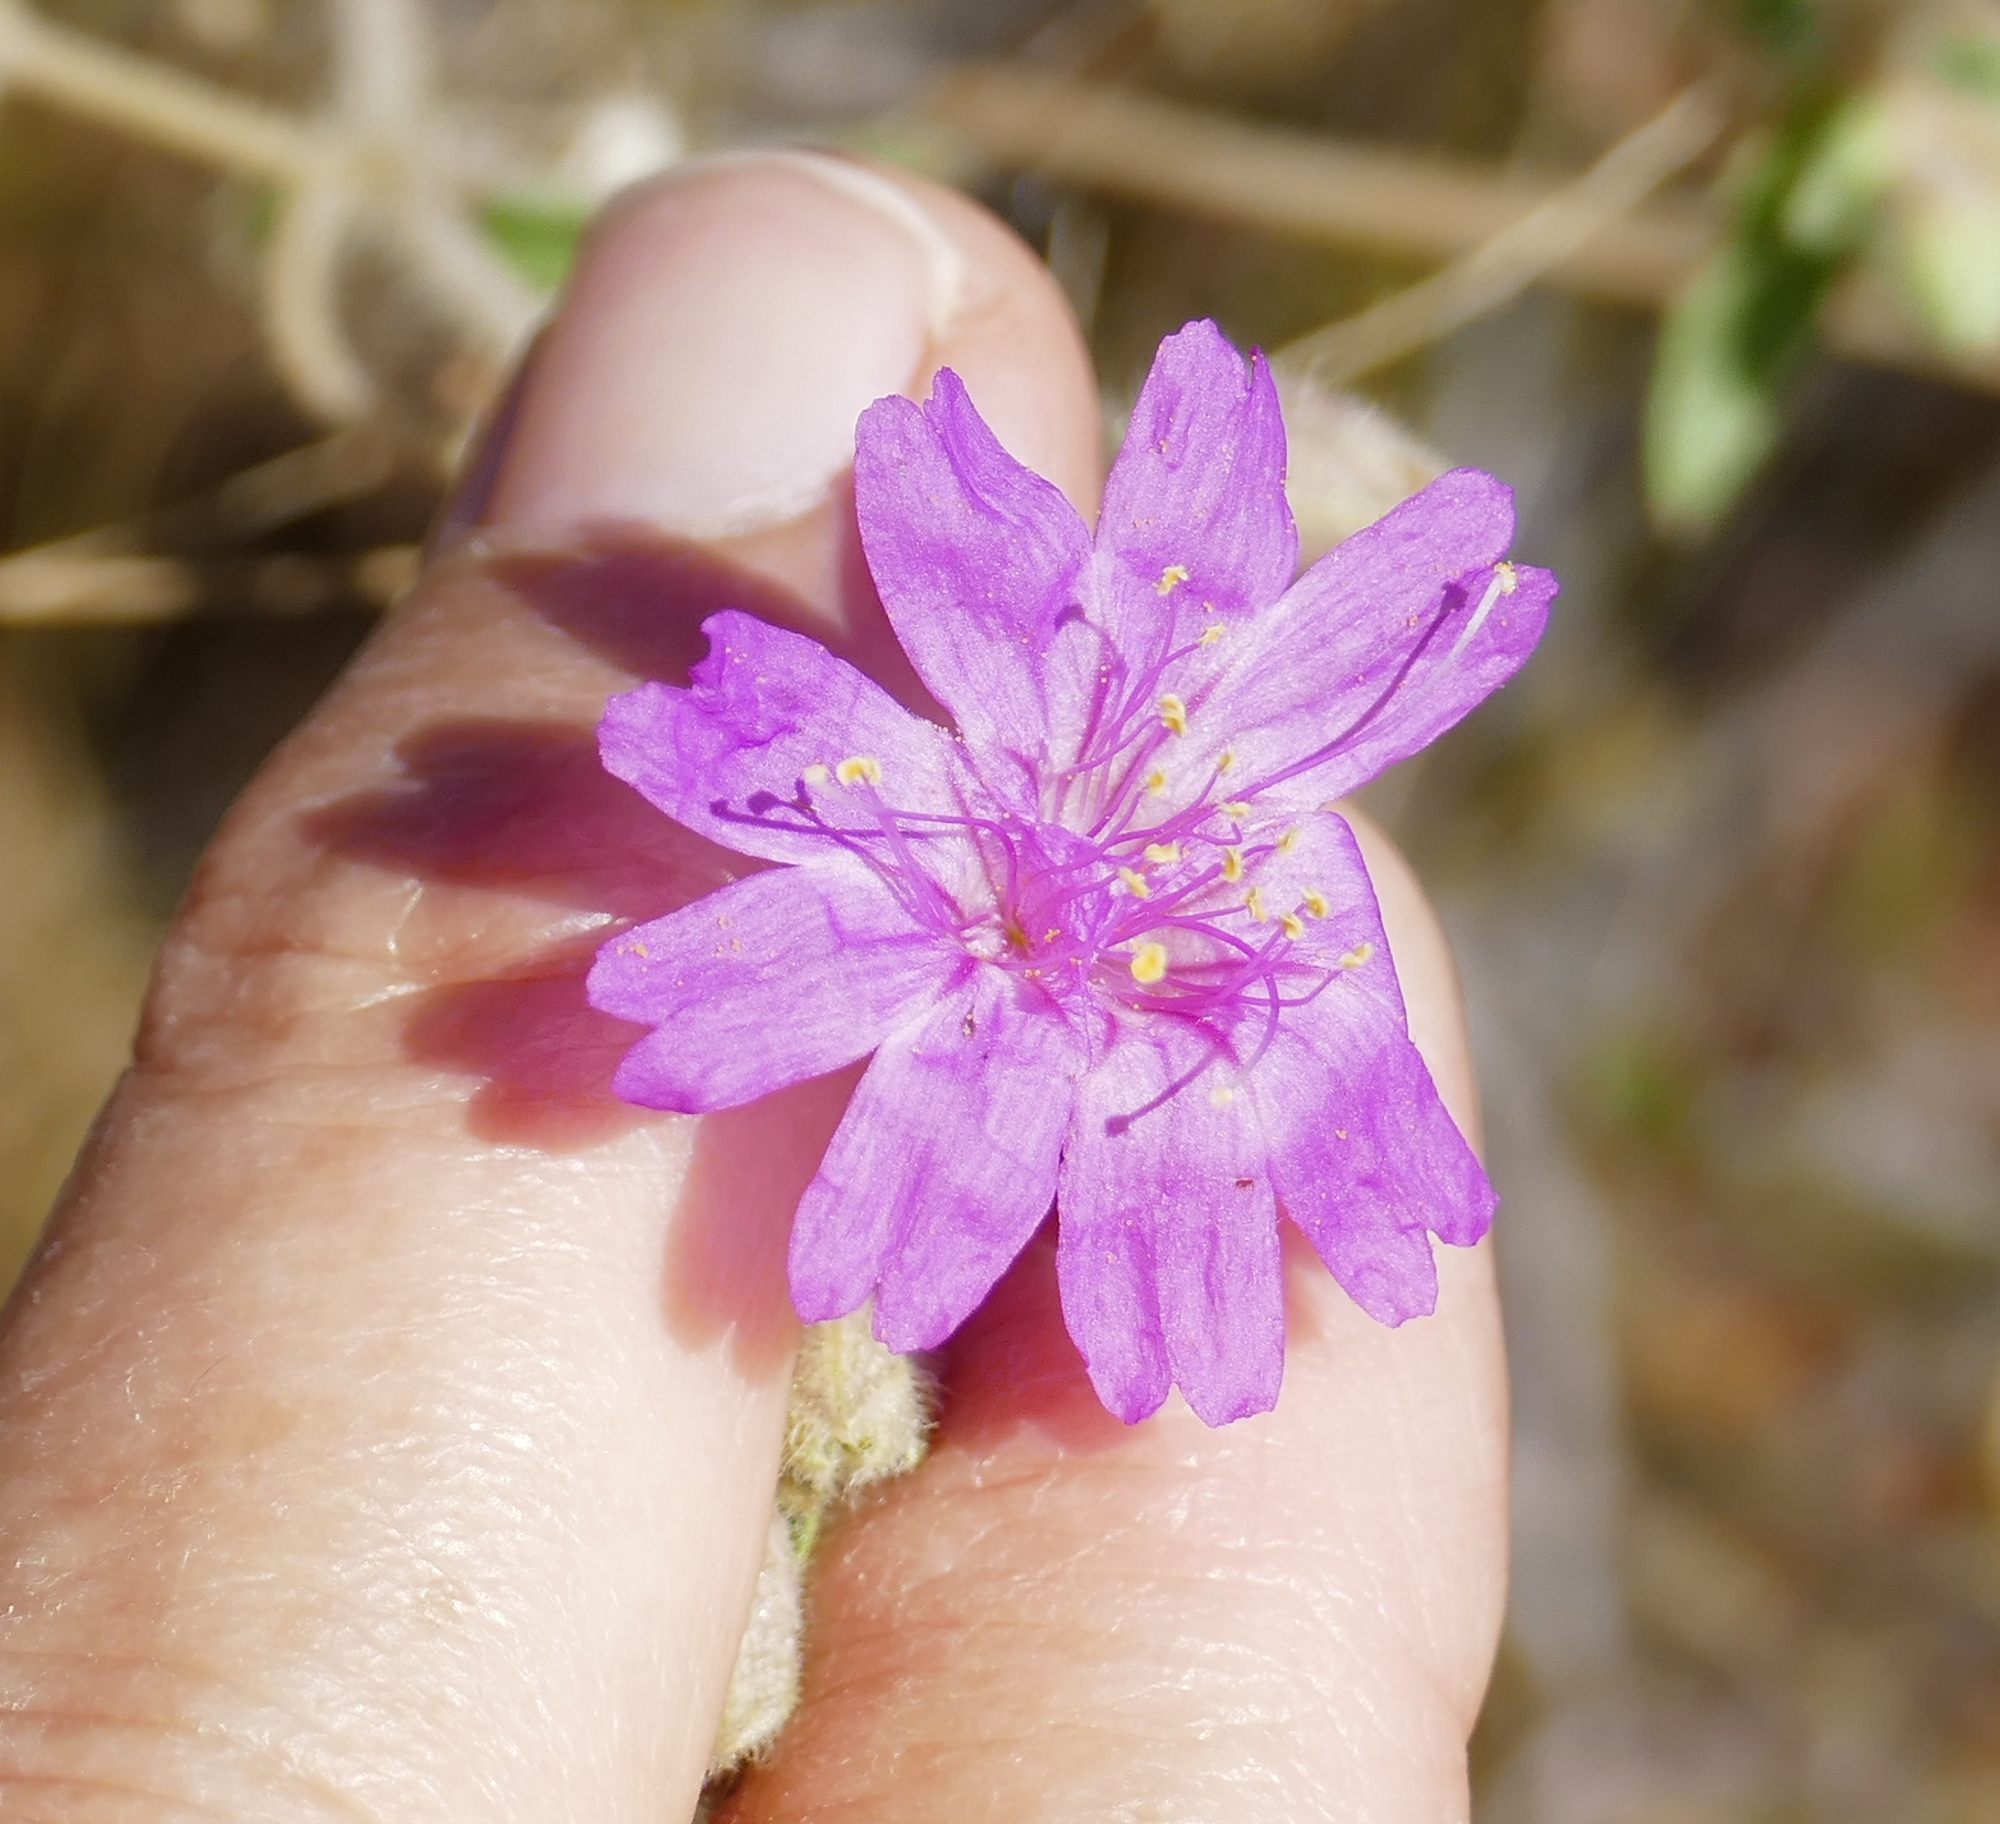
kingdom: Plantae
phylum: Tracheophyta
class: Magnoliopsida
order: Caryophyllales
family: Nyctaginaceae
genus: Allionia
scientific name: Allionia incarnata
